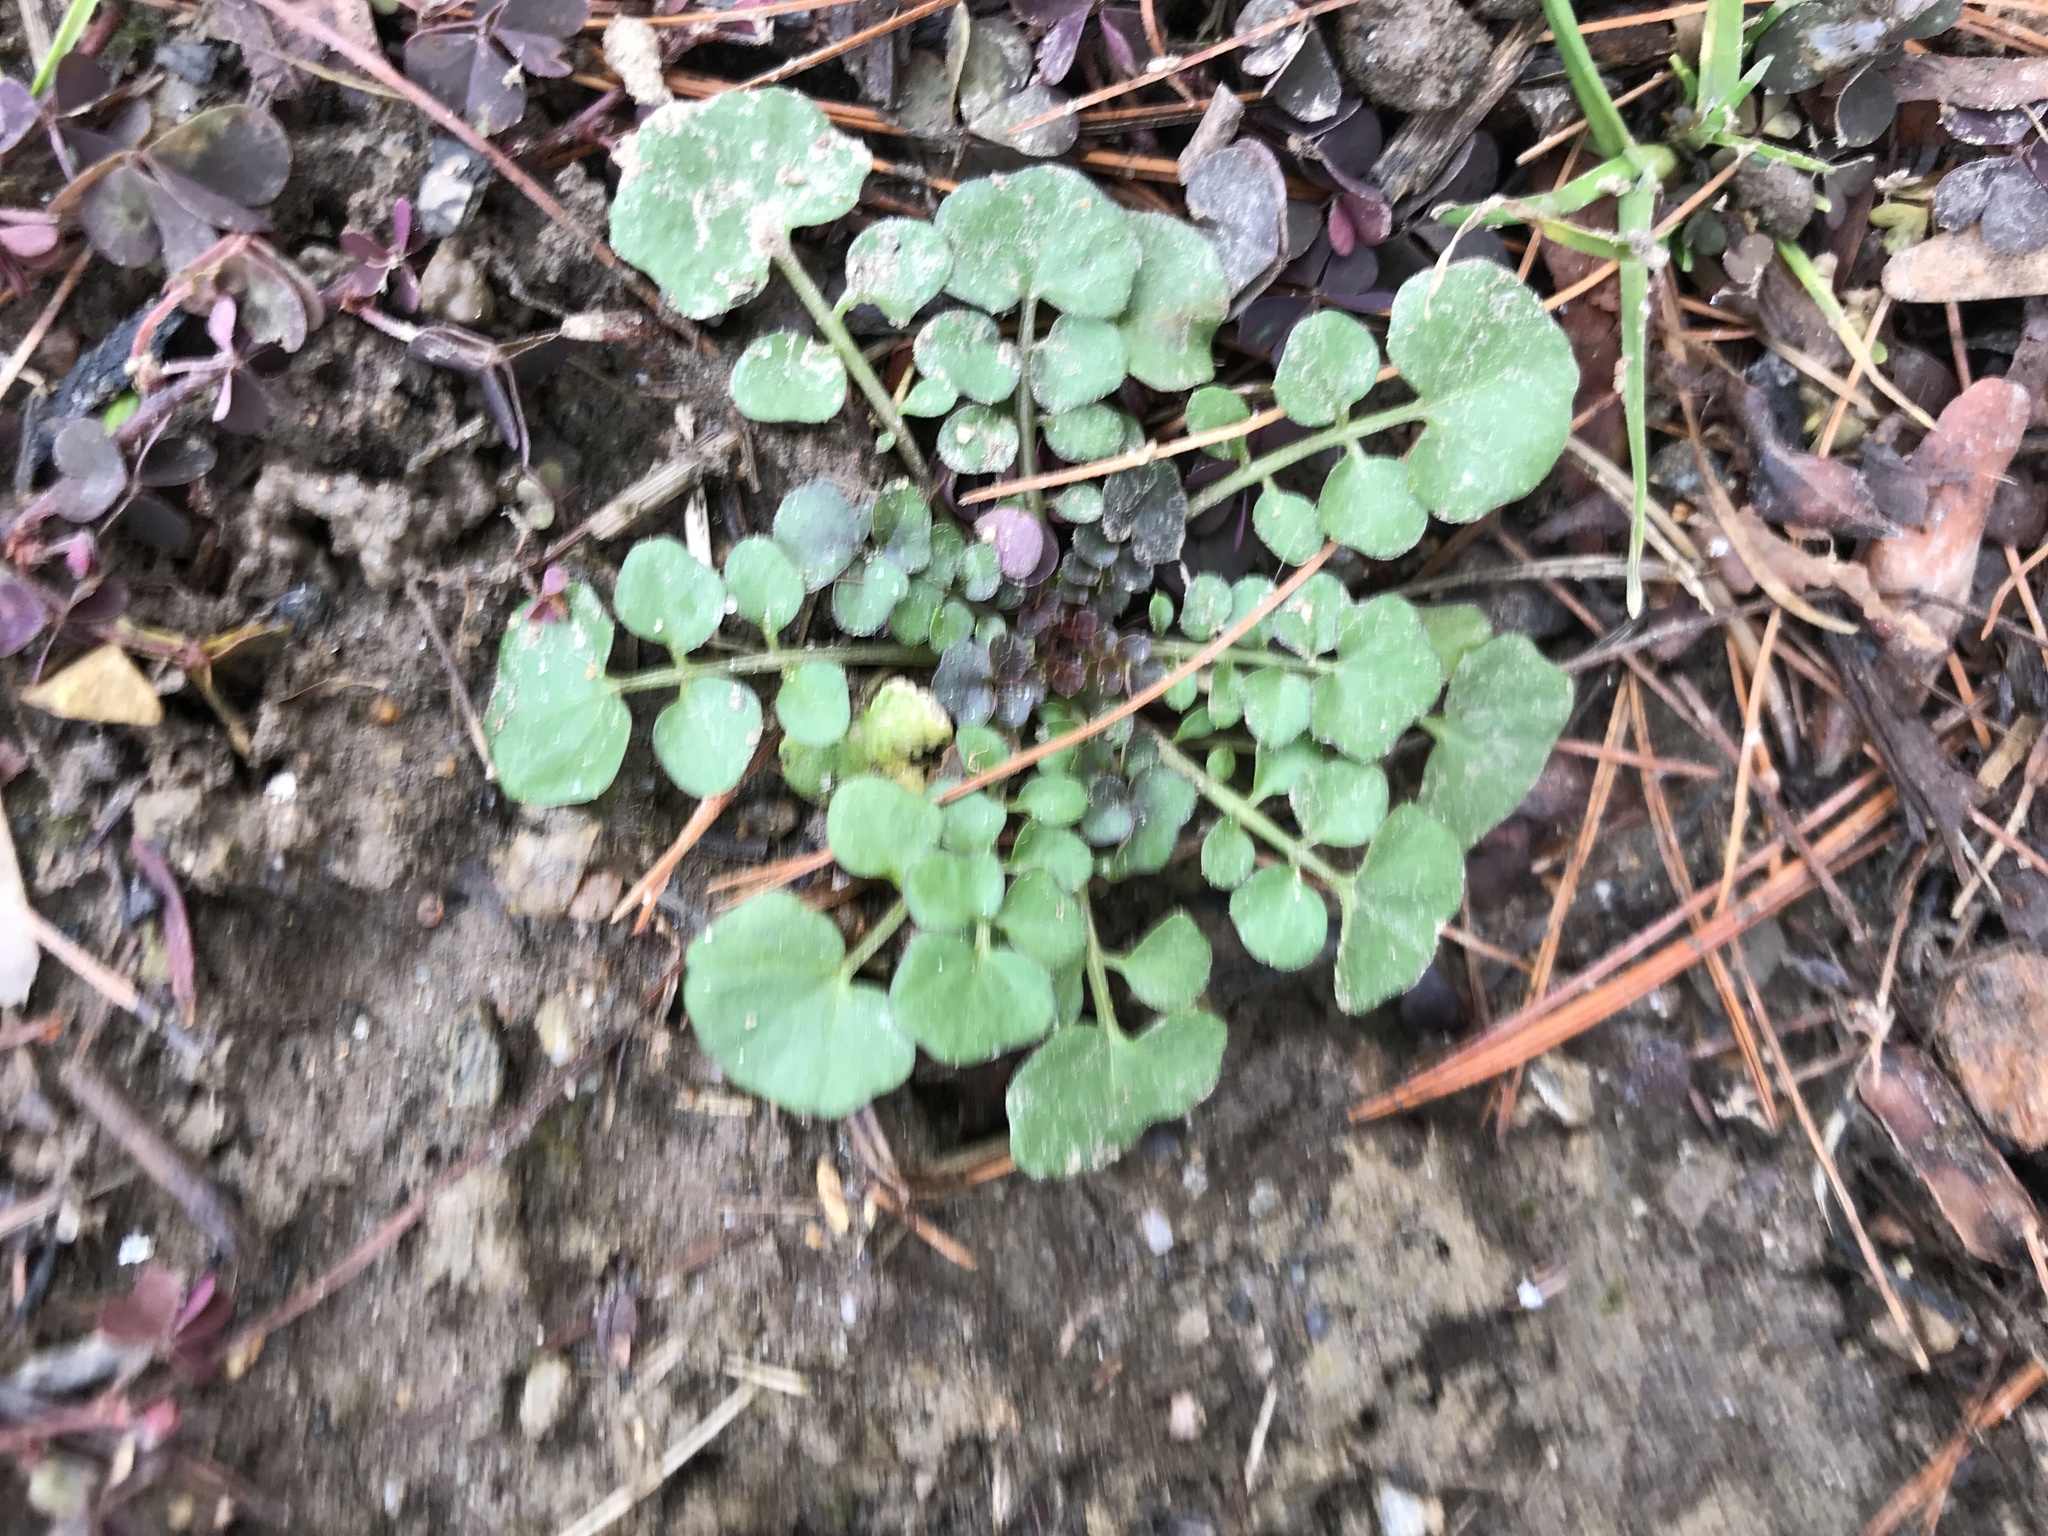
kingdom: Plantae
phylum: Tracheophyta
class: Magnoliopsida
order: Brassicales
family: Brassicaceae
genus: Cardamine
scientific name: Cardamine hirsuta
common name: Hairy bittercress
